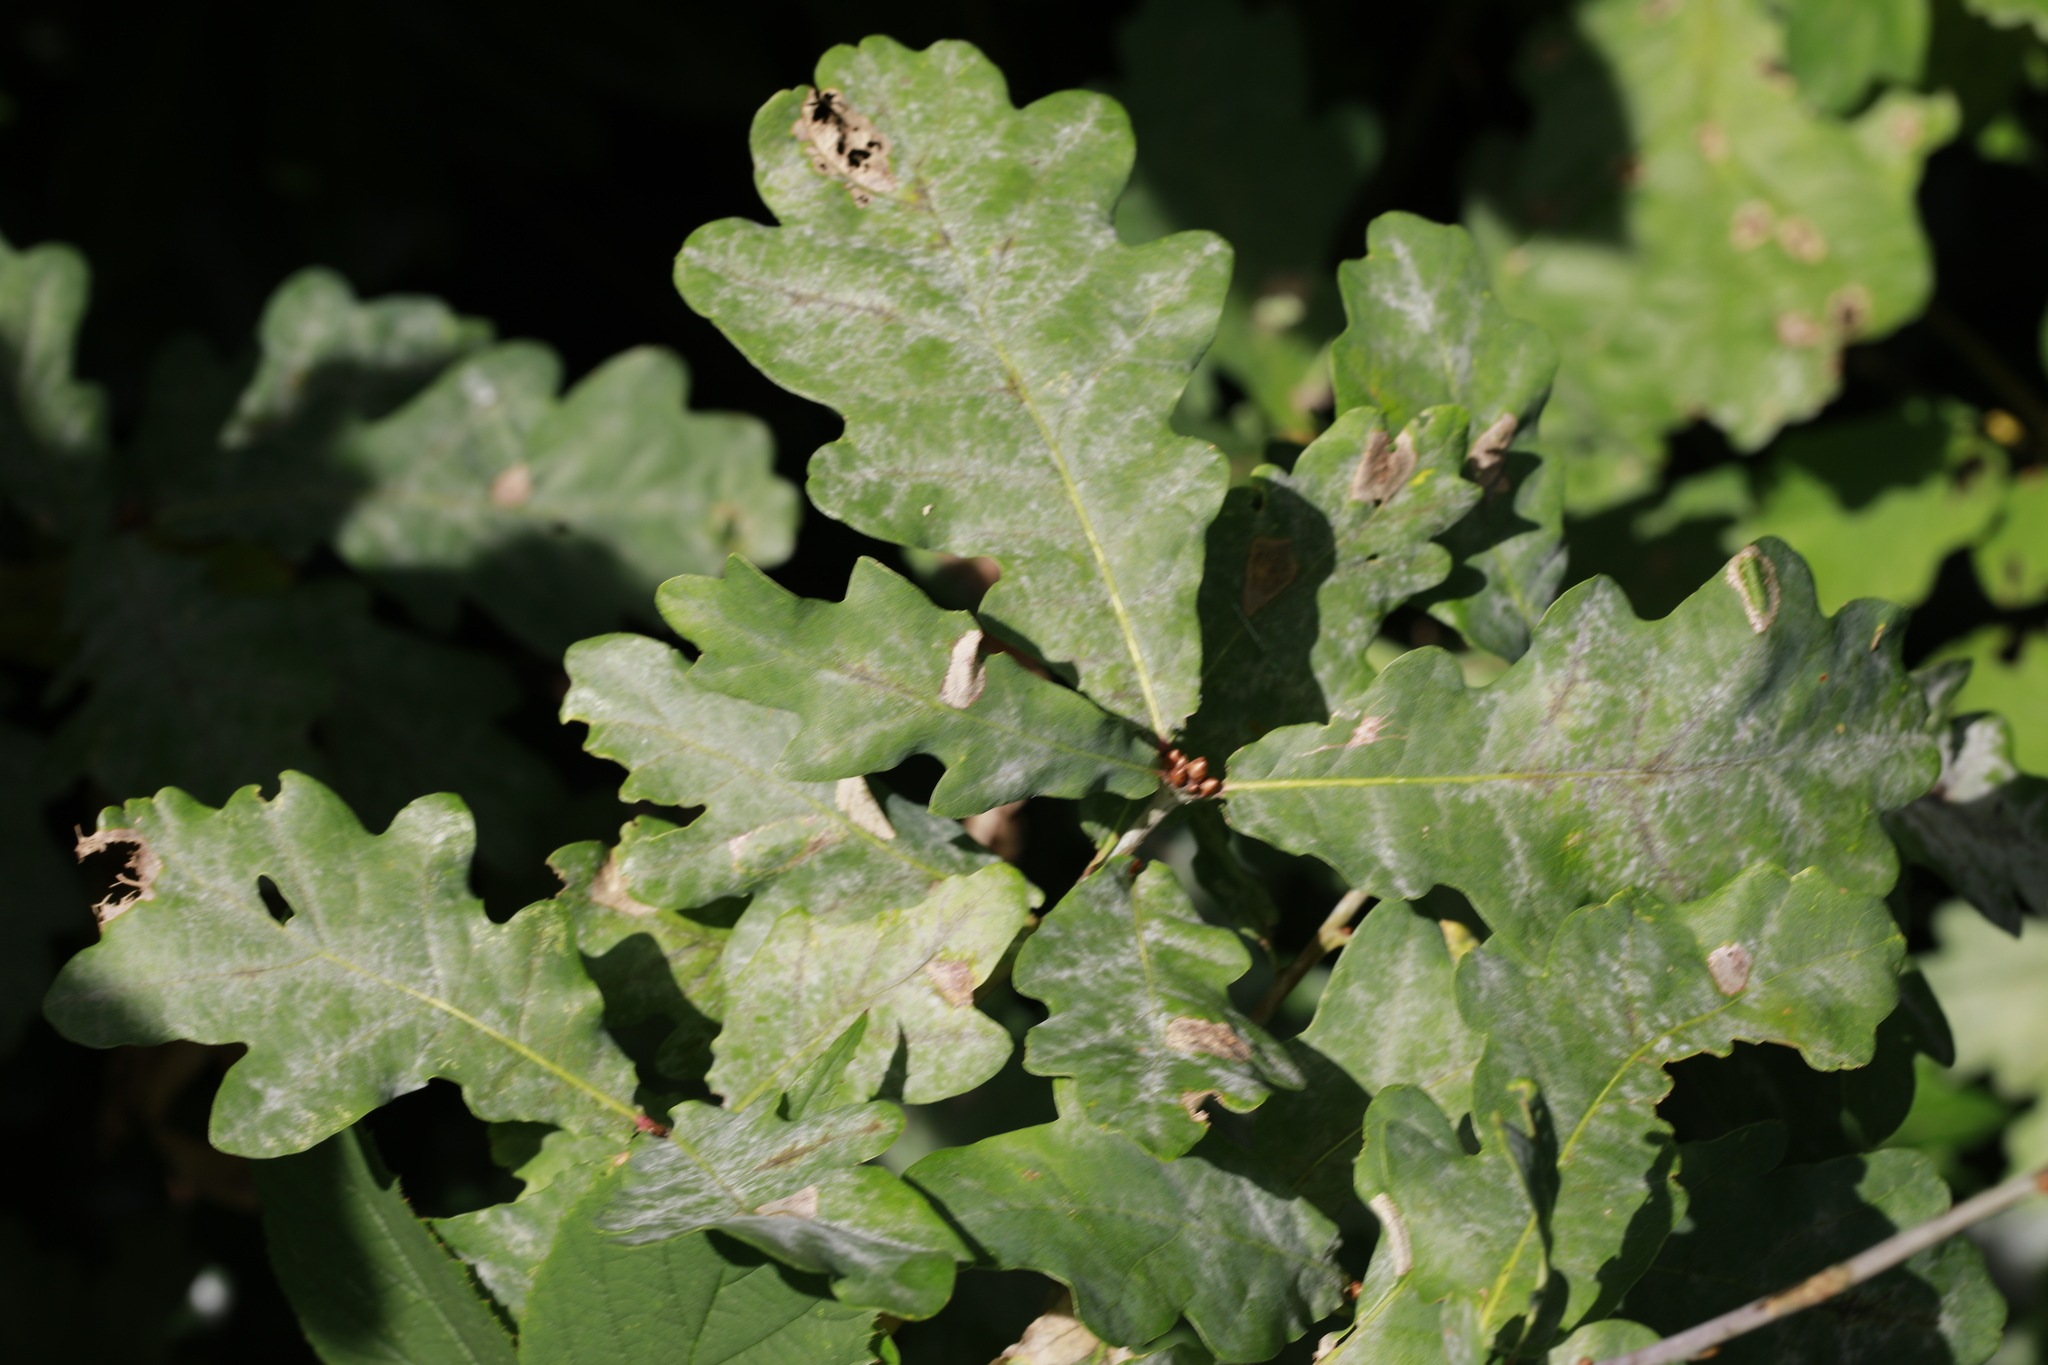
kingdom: Fungi
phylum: Ascomycota
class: Leotiomycetes
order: Helotiales
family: Erysiphaceae
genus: Erysiphe
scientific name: Erysiphe alphitoides
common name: Oak mildew
